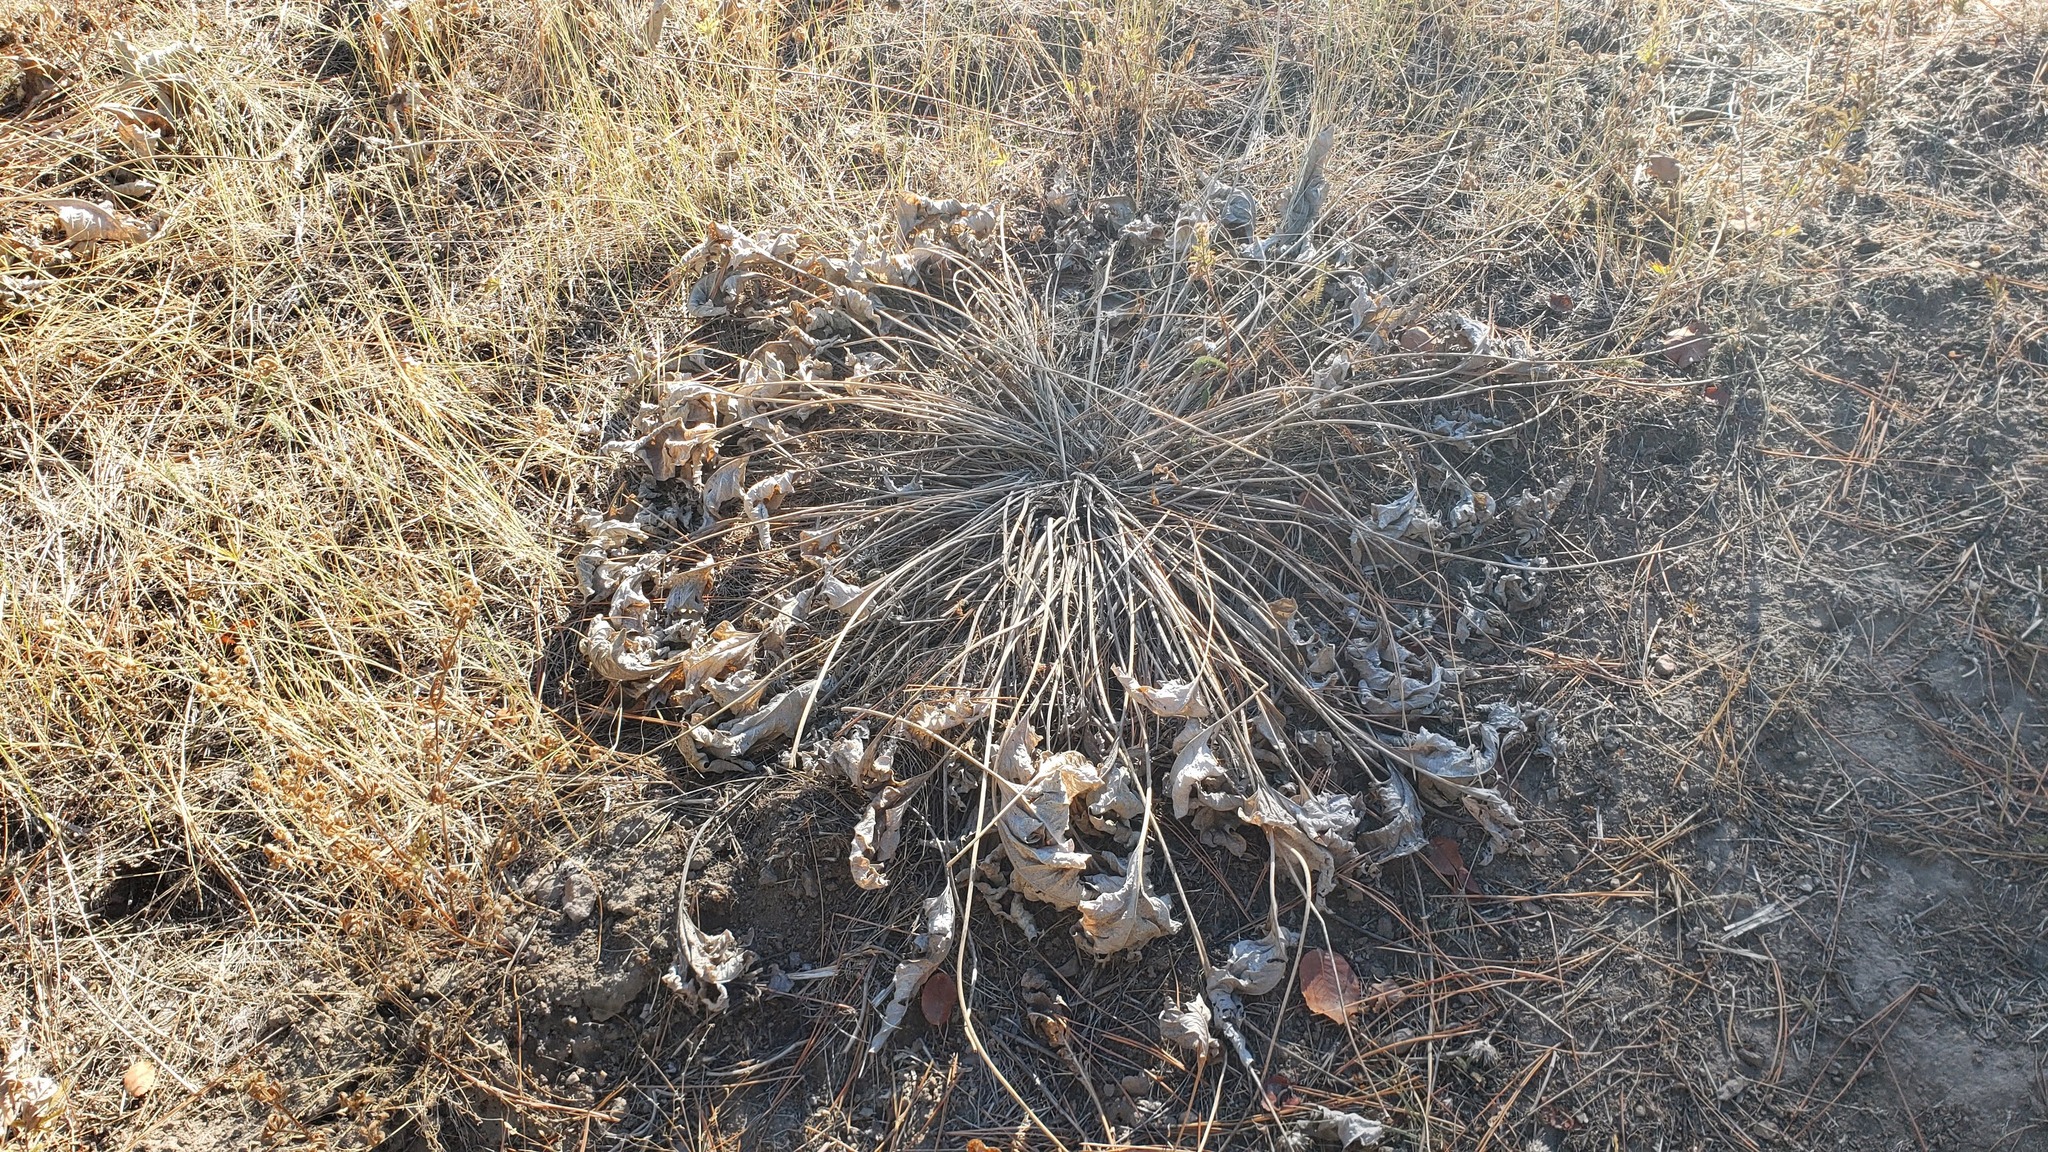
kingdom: Plantae
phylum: Tracheophyta
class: Magnoliopsida
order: Asterales
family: Asteraceae
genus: Wyethia
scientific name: Wyethia sagittata
